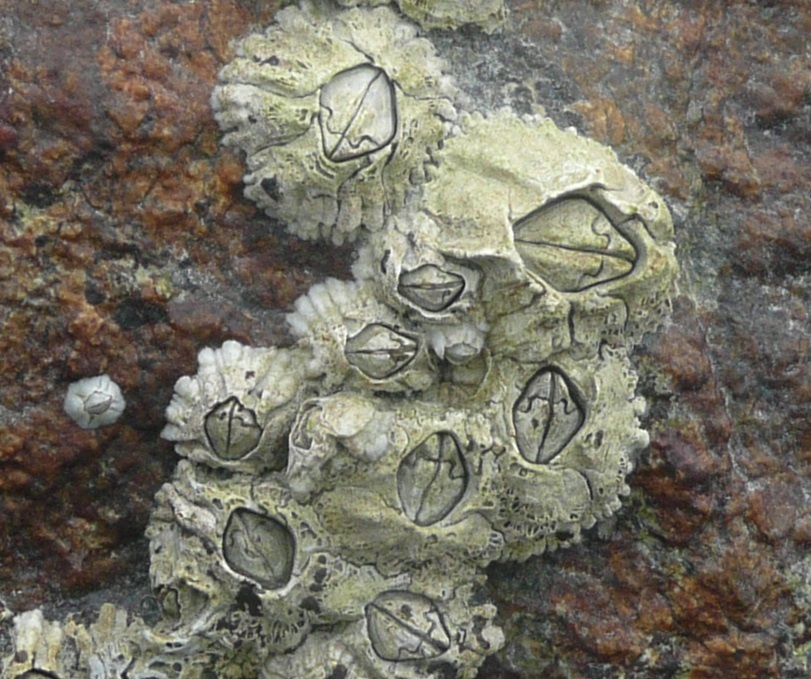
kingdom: Animalia
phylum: Arthropoda
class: Maxillopoda
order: Sessilia
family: Archaeobalanidae
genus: Semibalanus
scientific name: Semibalanus balanoides
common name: Acorn barnacle
